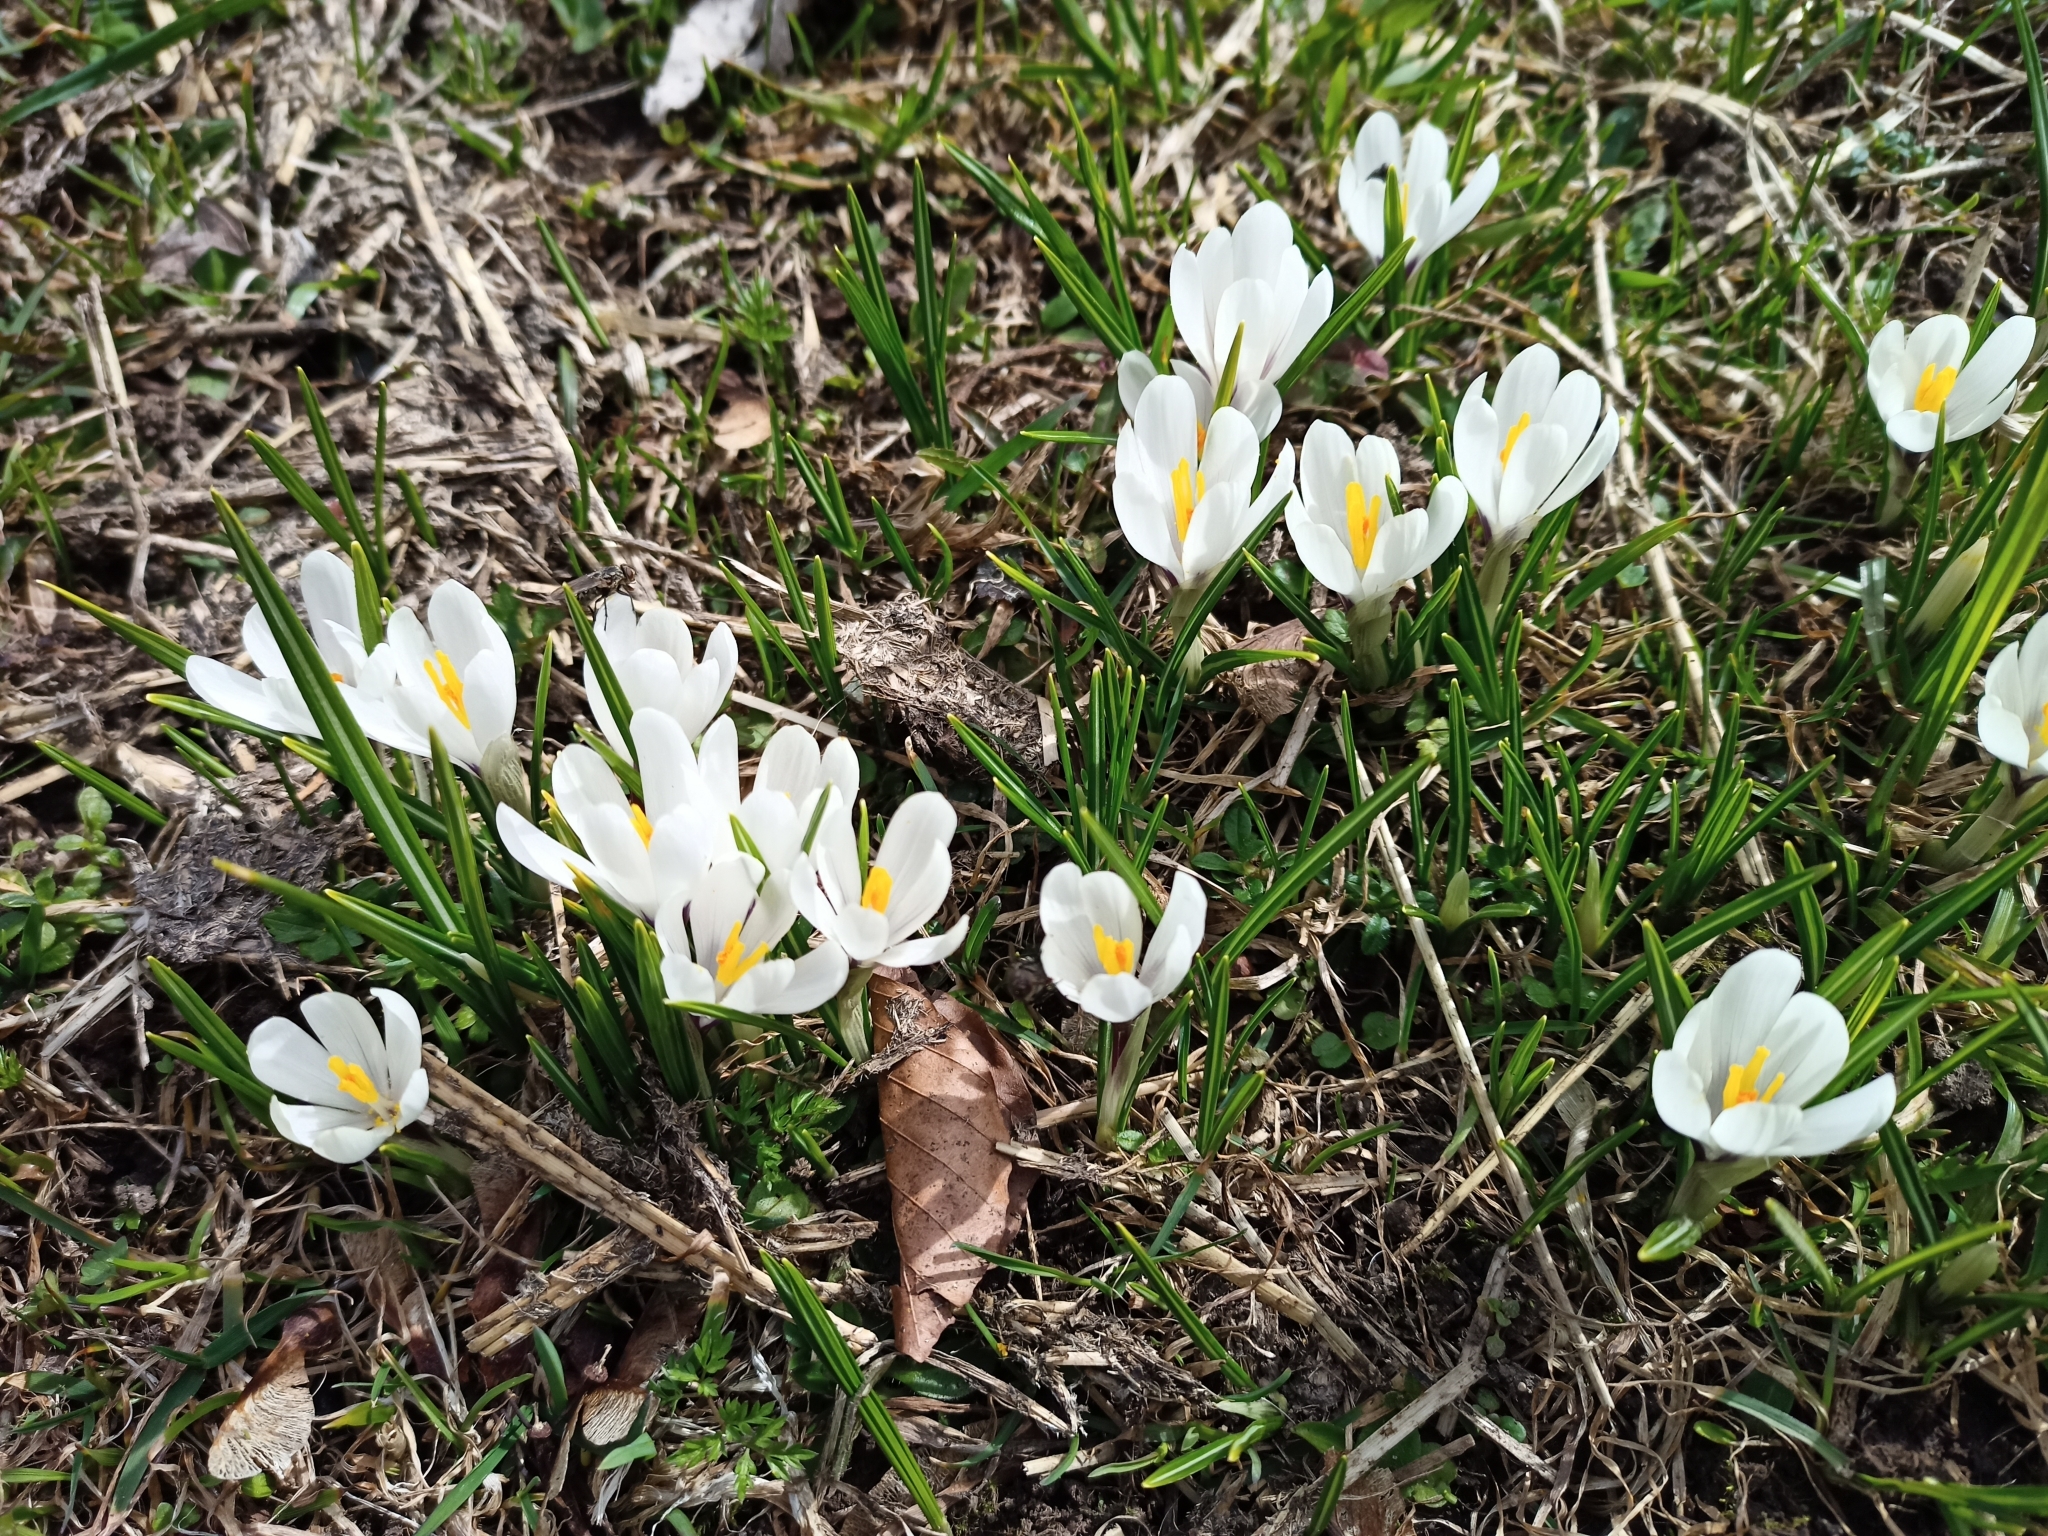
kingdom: Plantae
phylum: Tracheophyta
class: Liliopsida
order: Asparagales
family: Iridaceae
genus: Crocus
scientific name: Crocus vernus
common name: Spring crocus
